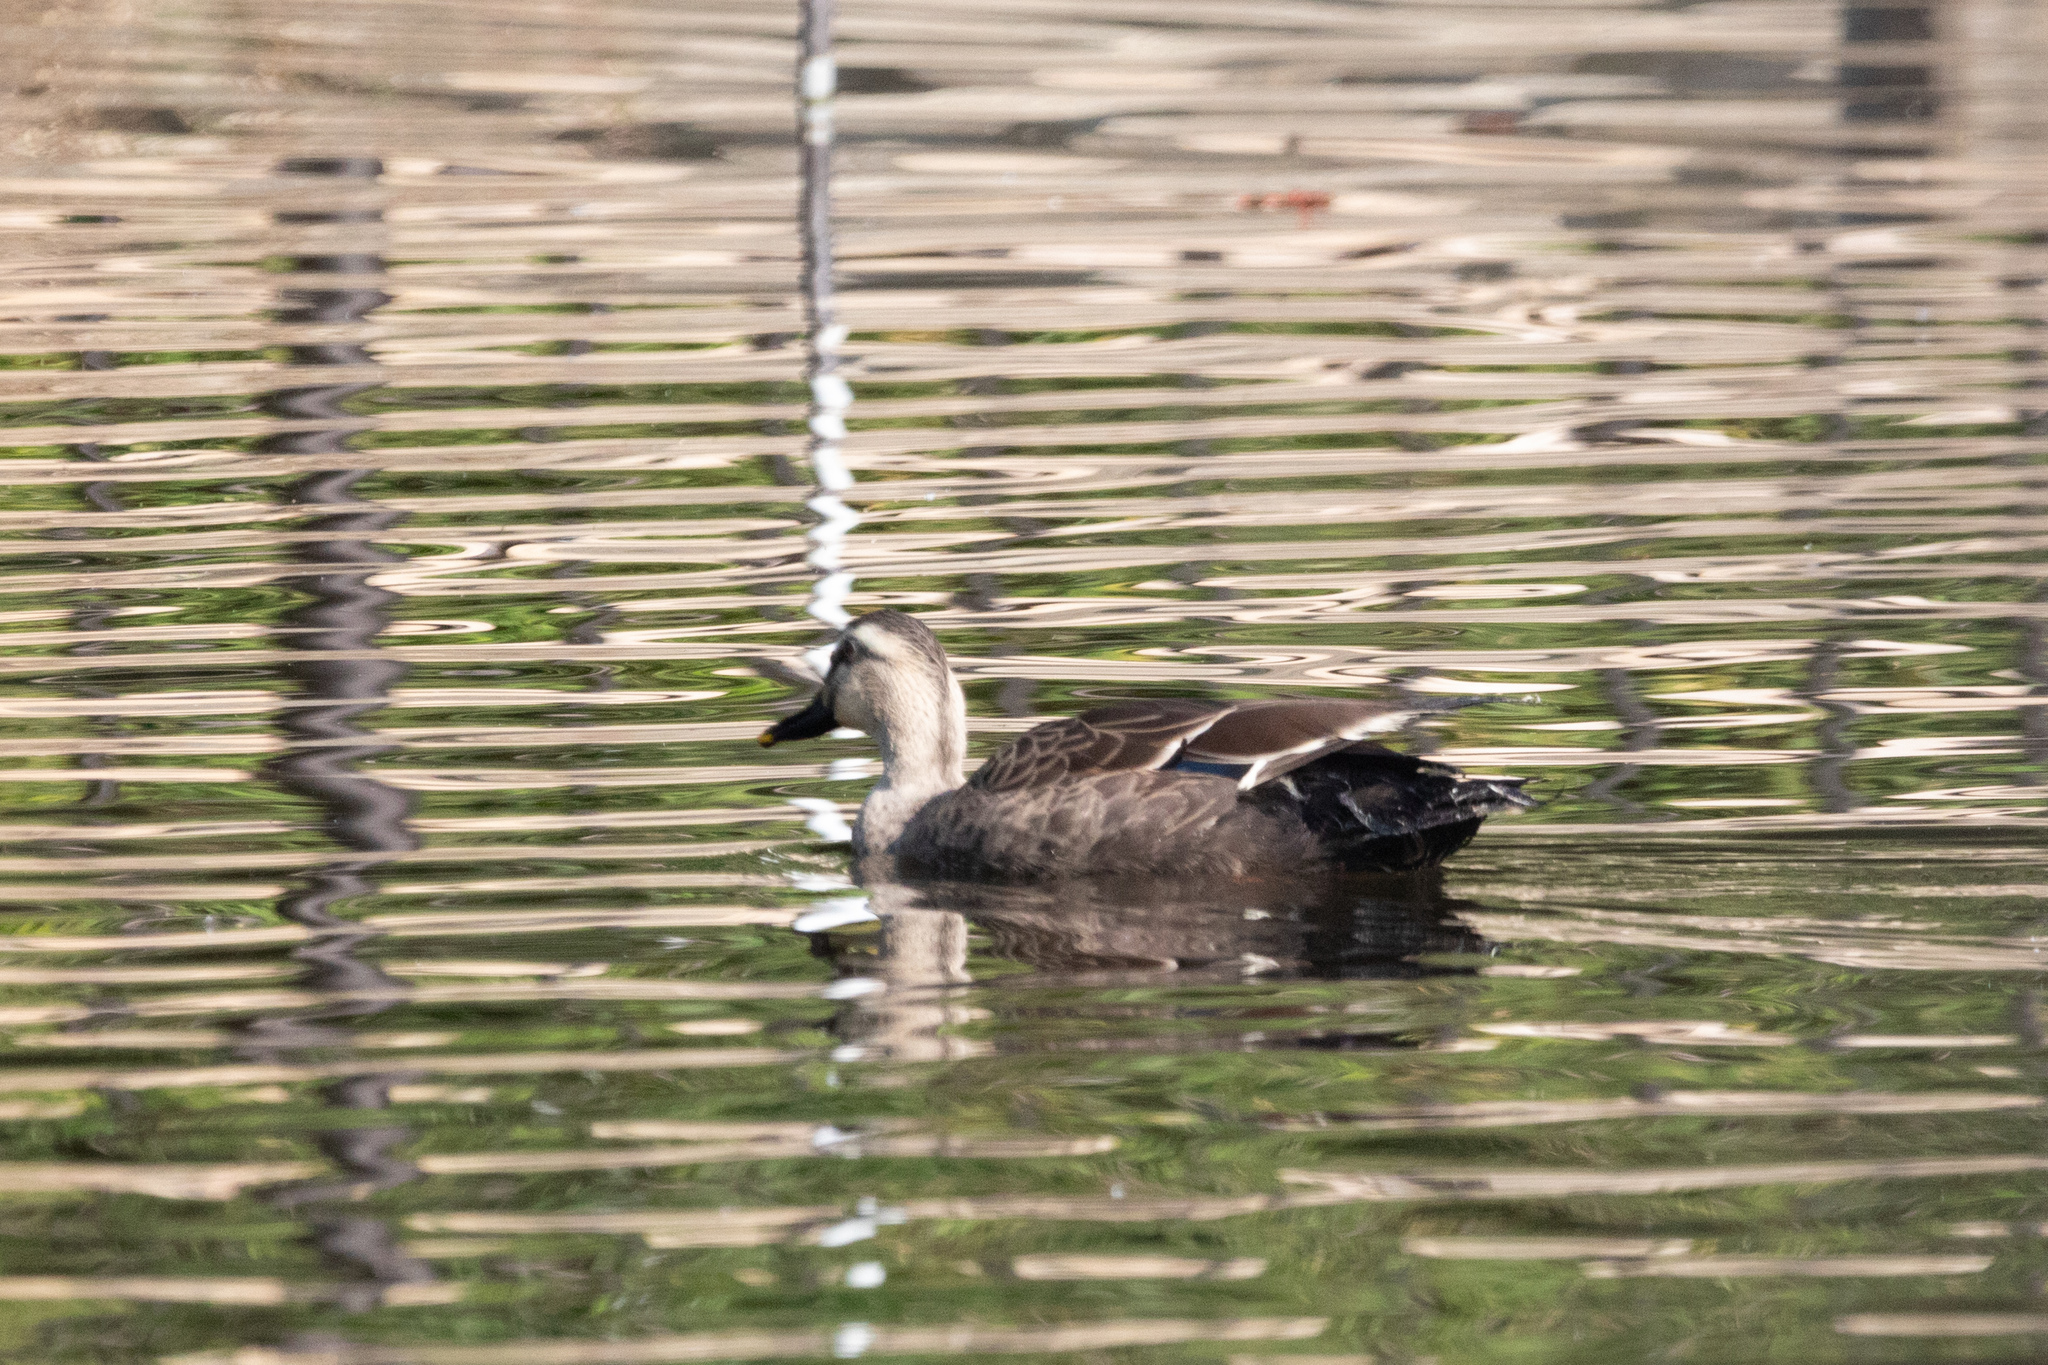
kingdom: Animalia
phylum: Chordata
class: Aves
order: Anseriformes
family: Anatidae
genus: Anas
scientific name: Anas zonorhyncha
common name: Eastern spot-billed duck
